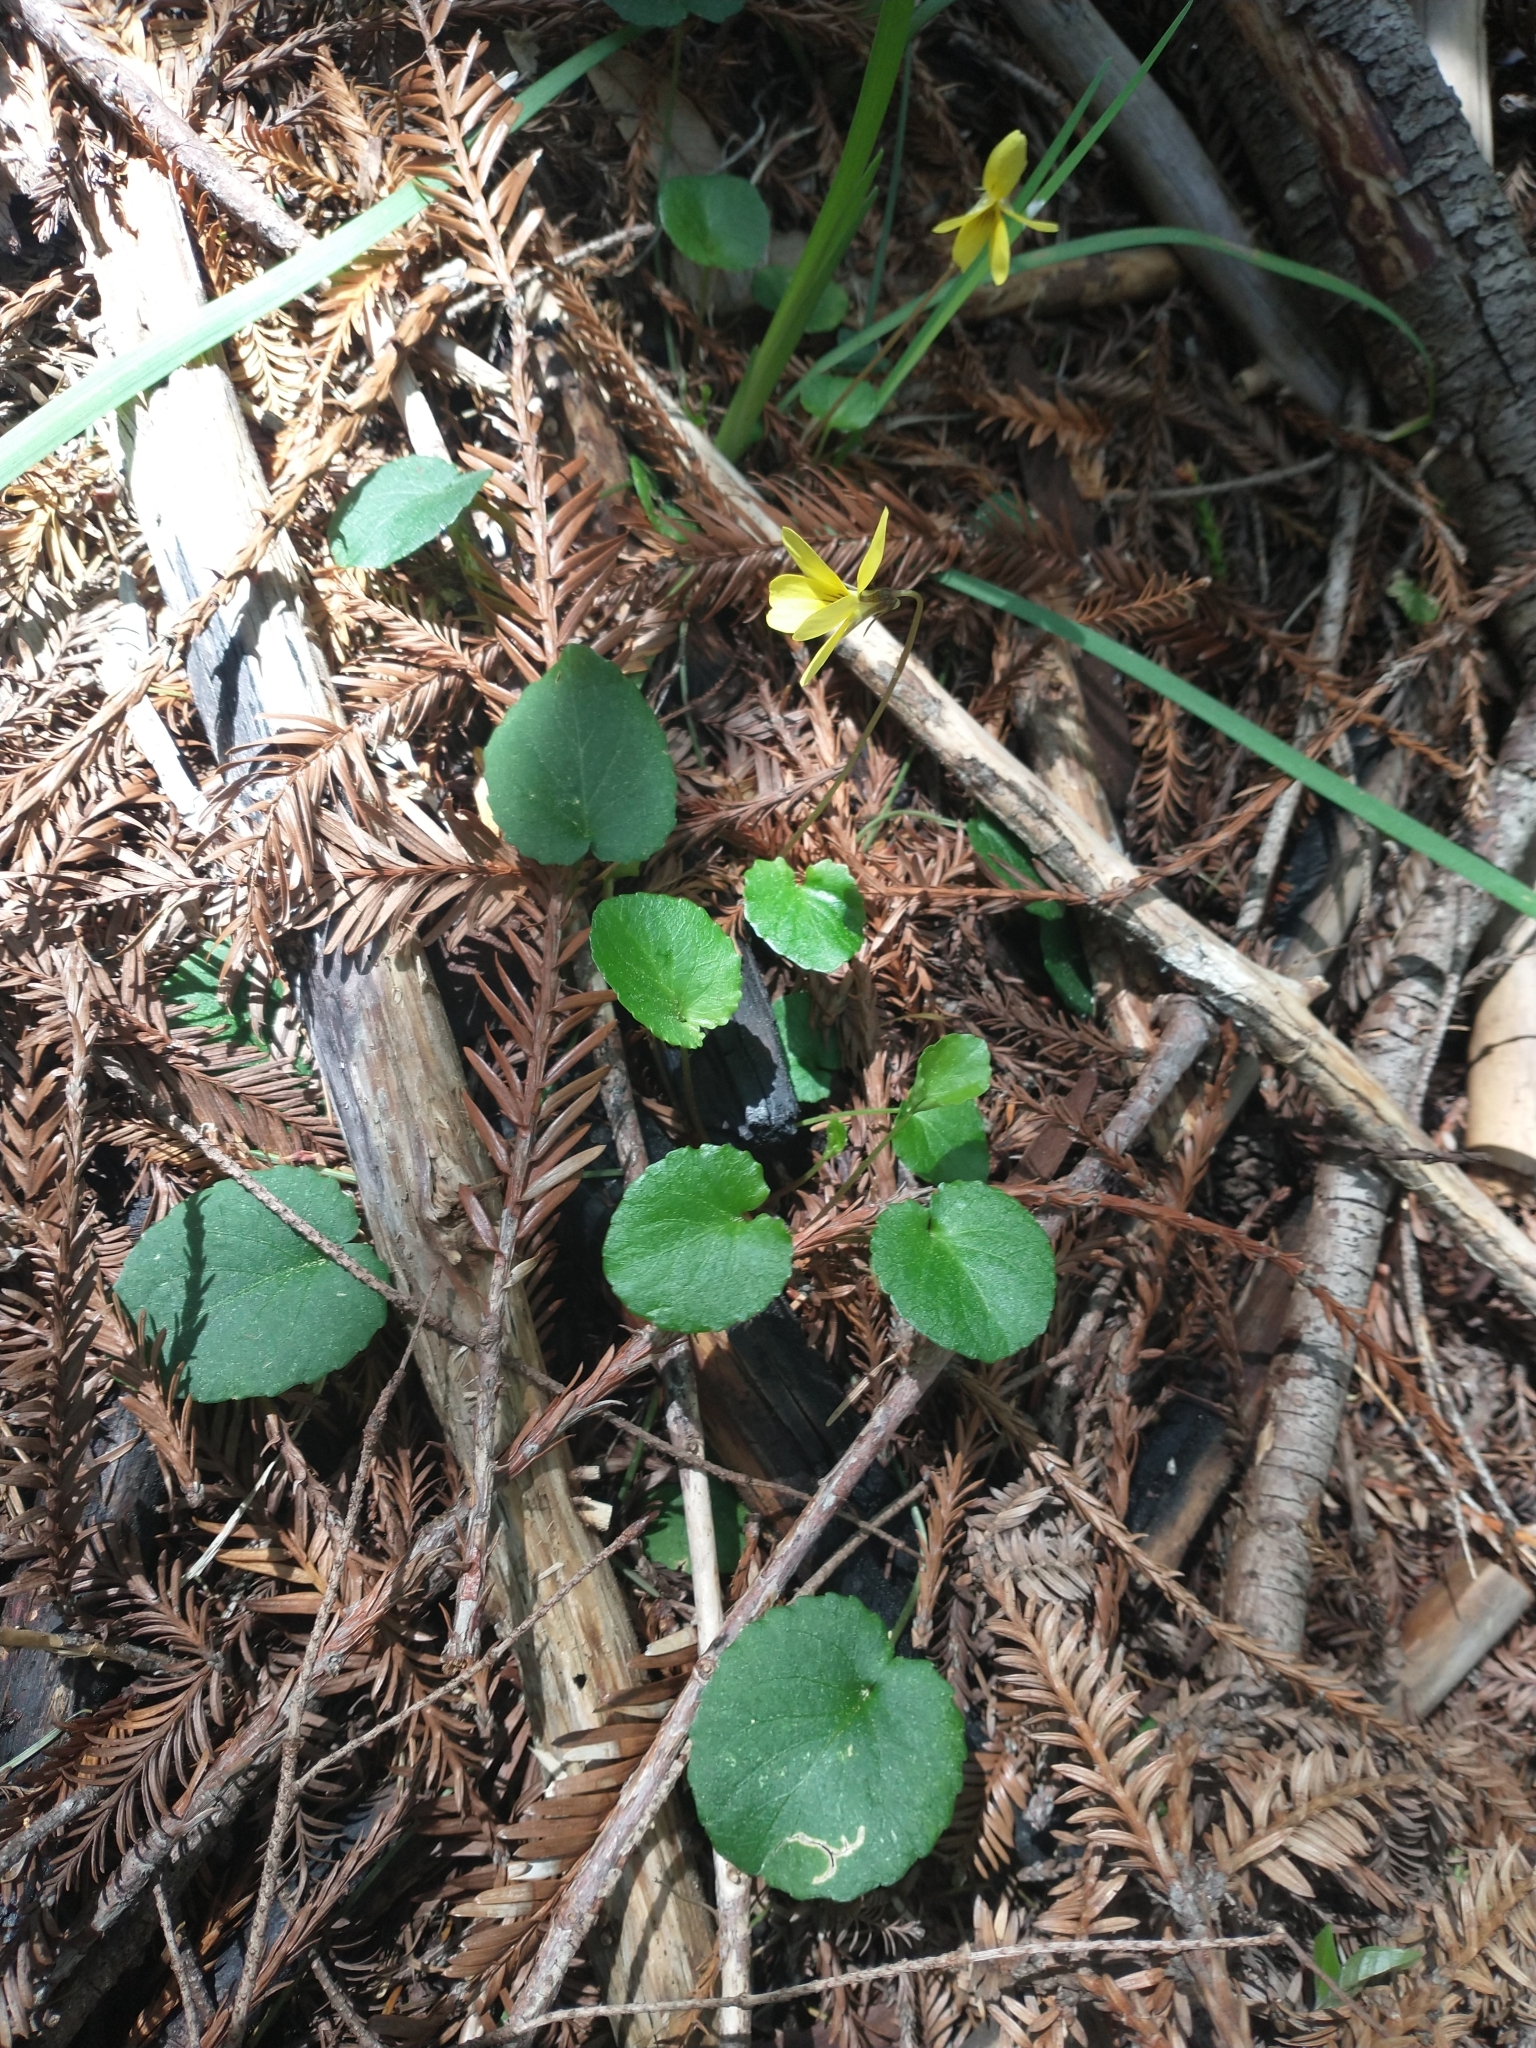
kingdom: Plantae
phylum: Tracheophyta
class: Magnoliopsida
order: Malpighiales
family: Violaceae
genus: Viola
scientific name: Viola sempervirens
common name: Evergreen violet
